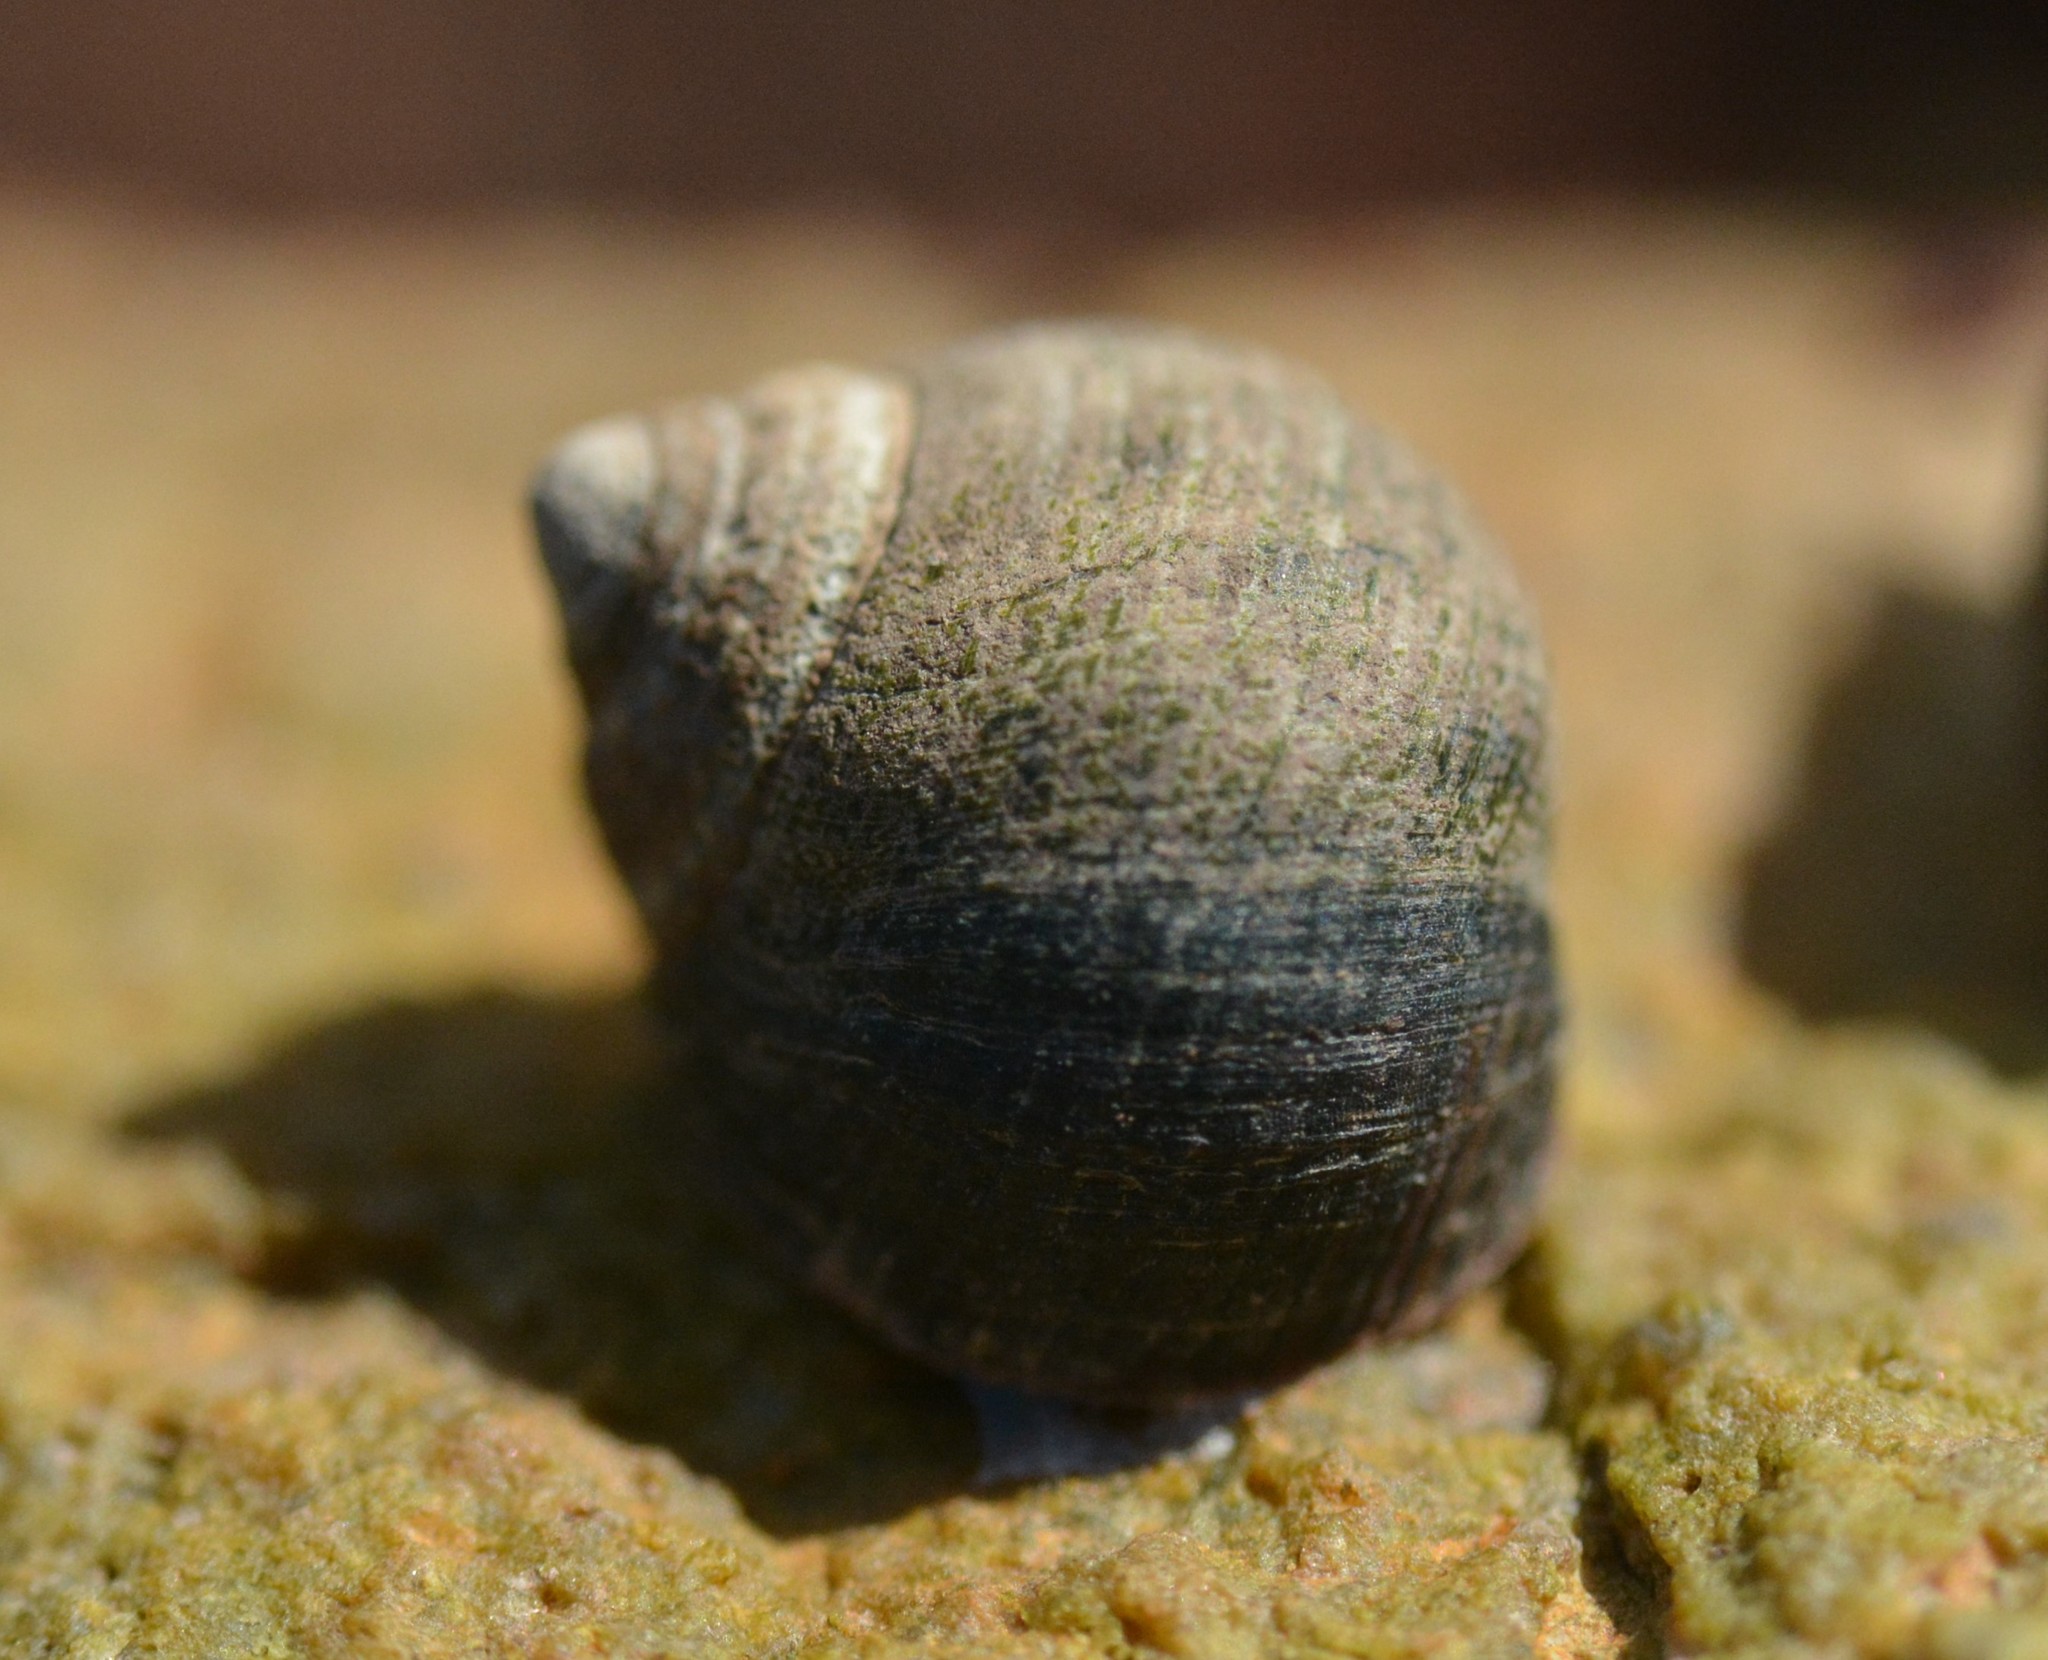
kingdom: Animalia
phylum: Mollusca
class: Gastropoda
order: Littorinimorpha
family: Littorinidae
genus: Littorina
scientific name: Littorina littorea
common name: Common periwinkle
